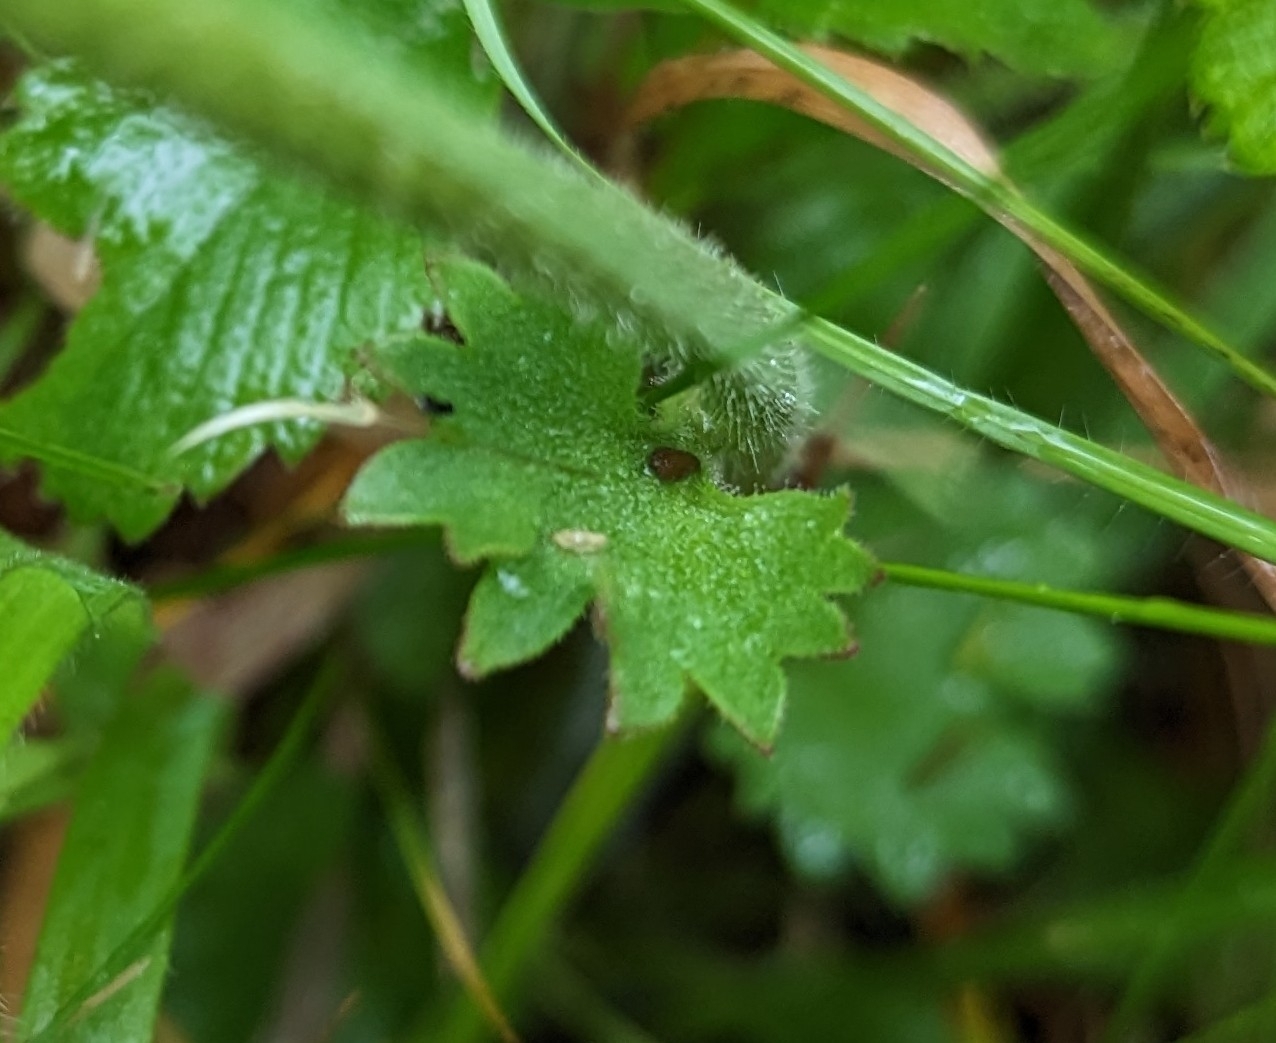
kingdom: Plantae
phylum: Tracheophyta
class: Magnoliopsida
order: Saxifragales
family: Saxifragaceae
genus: Saxifraga
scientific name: Saxifraga granulata
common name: Meadow saxifrage
